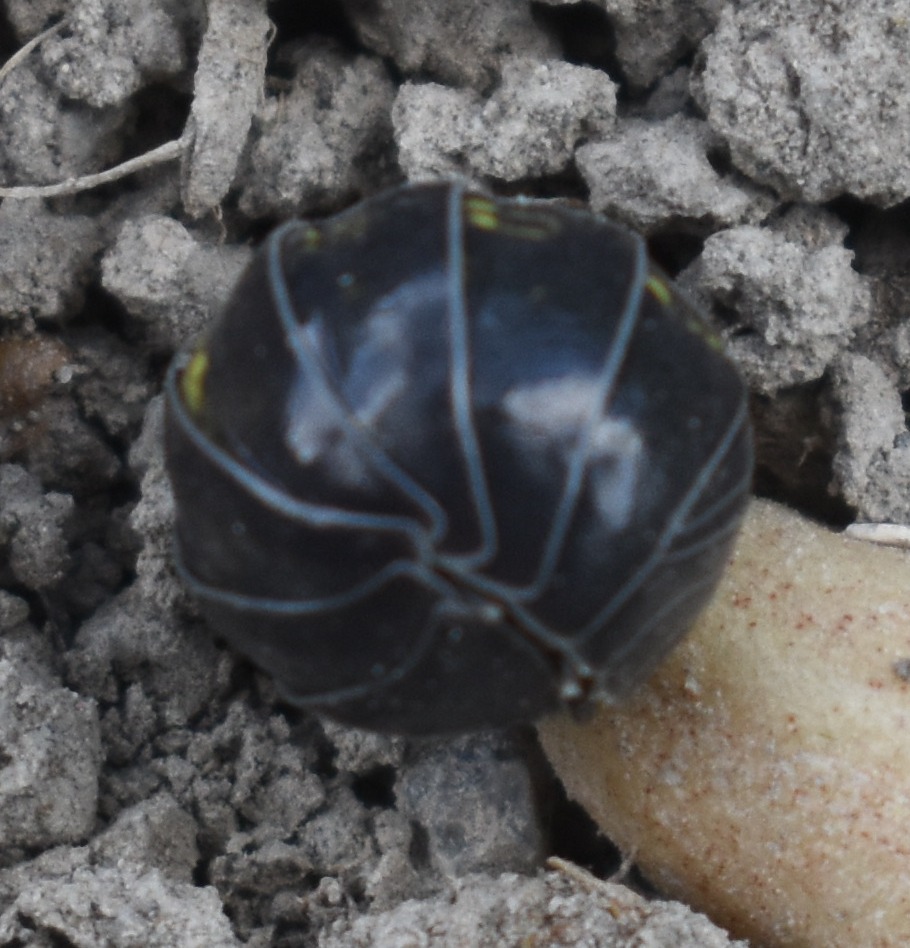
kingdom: Animalia
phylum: Arthropoda
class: Malacostraca
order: Isopoda
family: Armadillidiidae
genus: Armadillidium
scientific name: Armadillidium vulgare
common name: Common pill woodlouse
